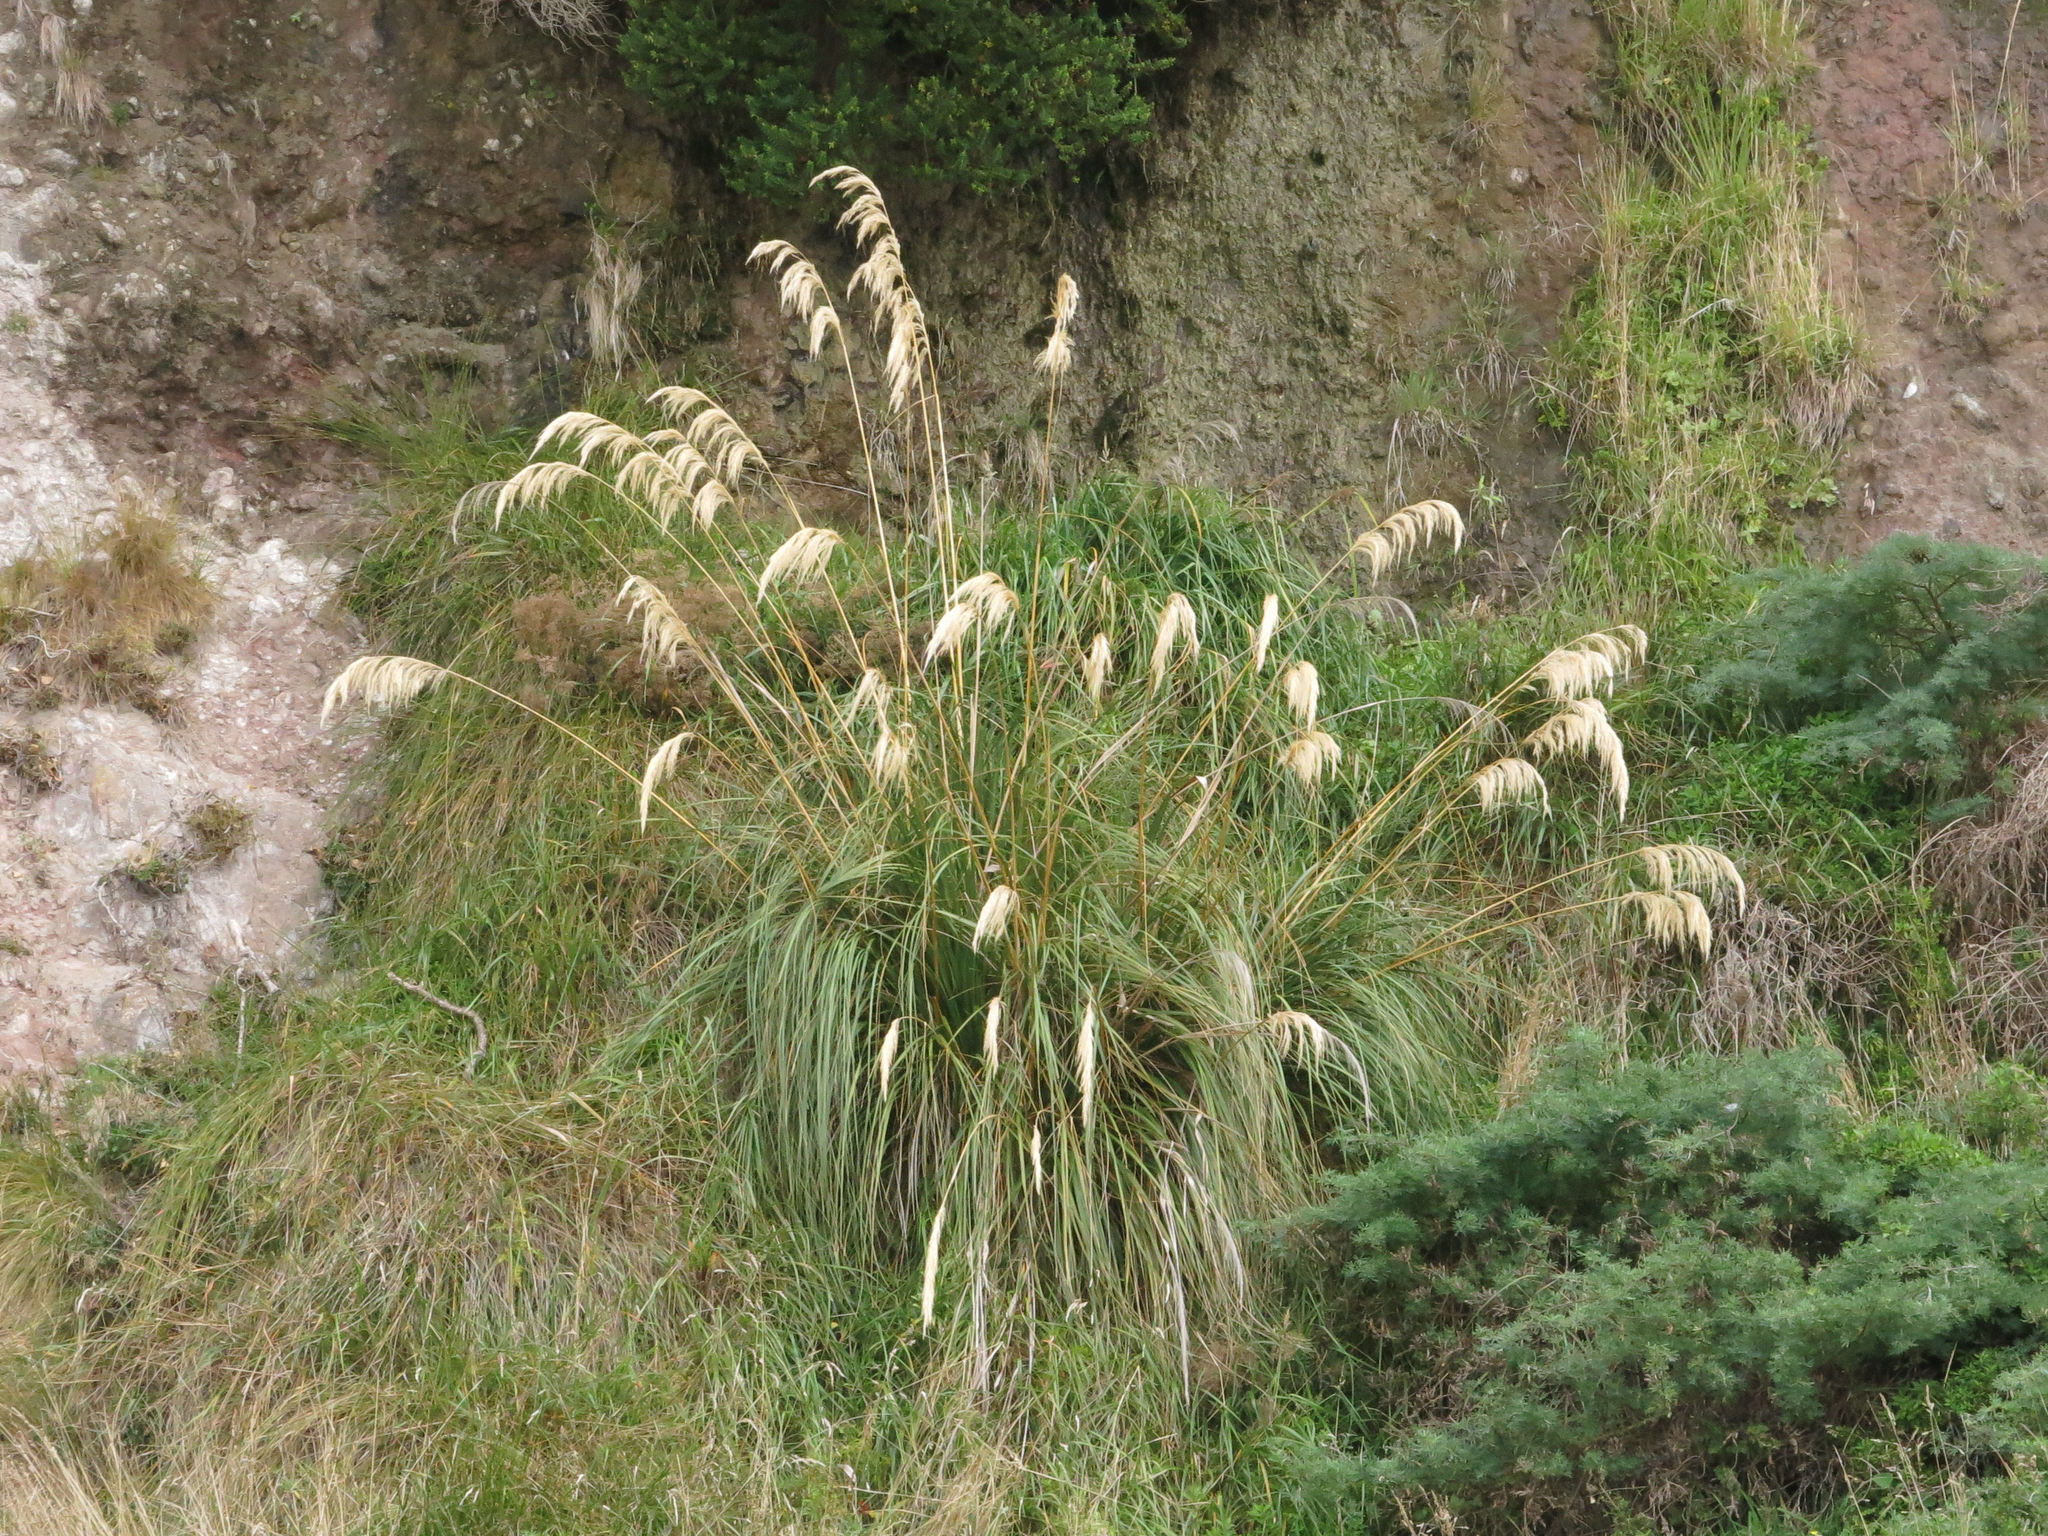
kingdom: Plantae
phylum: Tracheophyta
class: Liliopsida
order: Poales
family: Poaceae
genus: Austroderia
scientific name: Austroderia richardii
